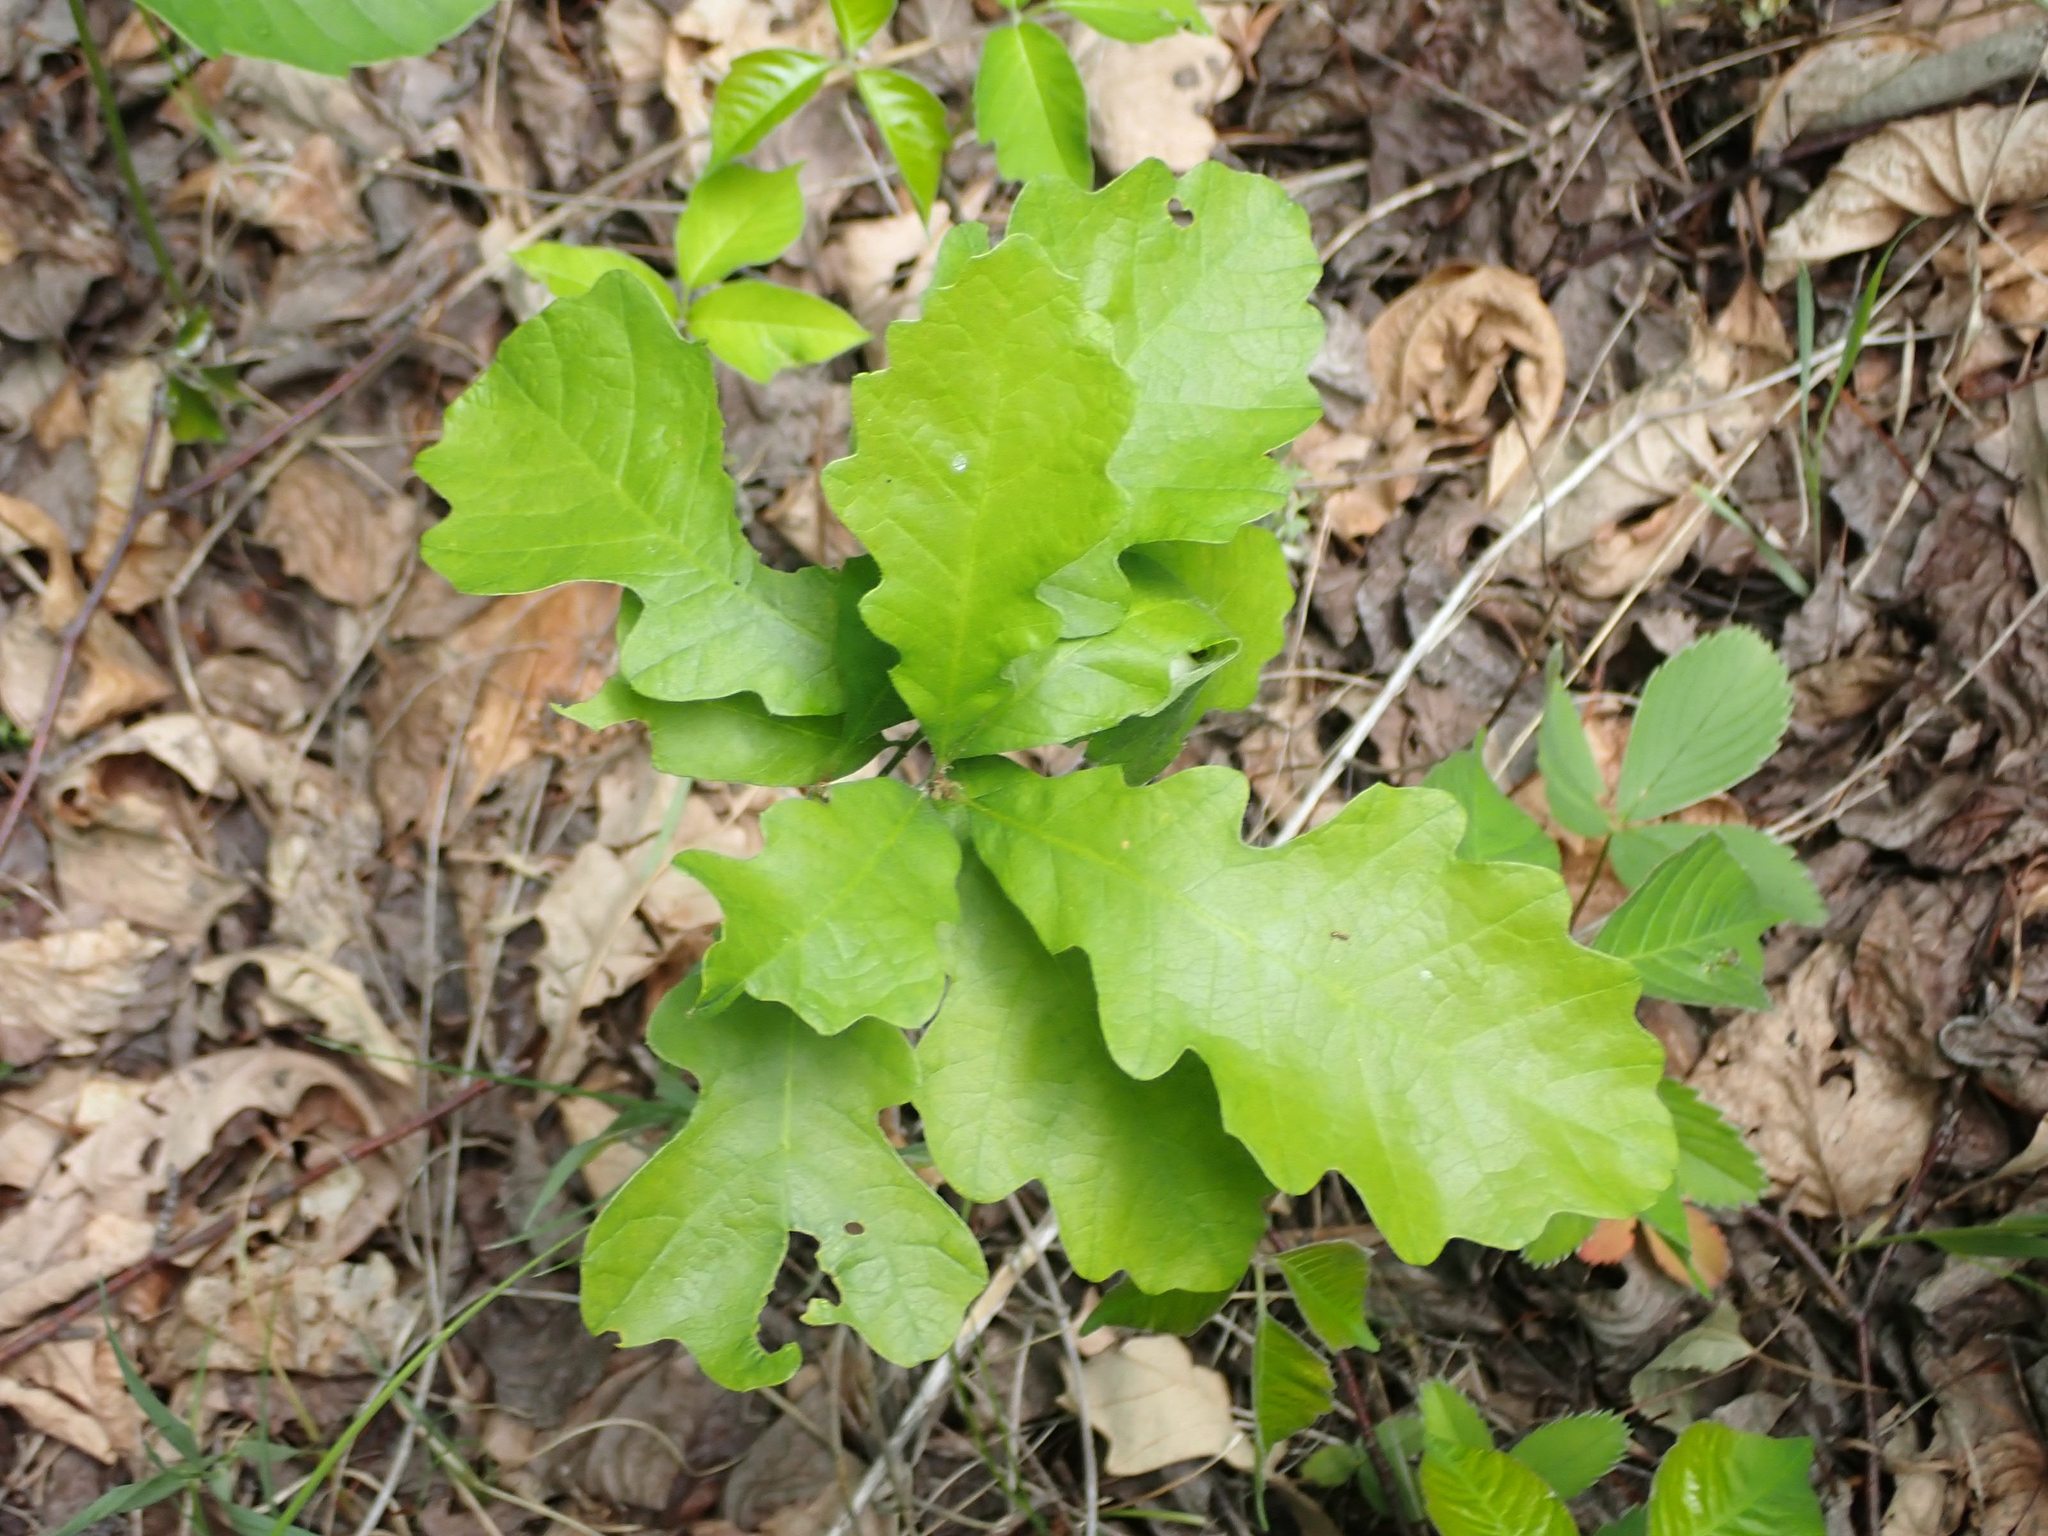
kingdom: Plantae
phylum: Tracheophyta
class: Magnoliopsida
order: Fagales
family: Fagaceae
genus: Quercus
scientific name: Quercus macrocarpa
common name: Bur oak
